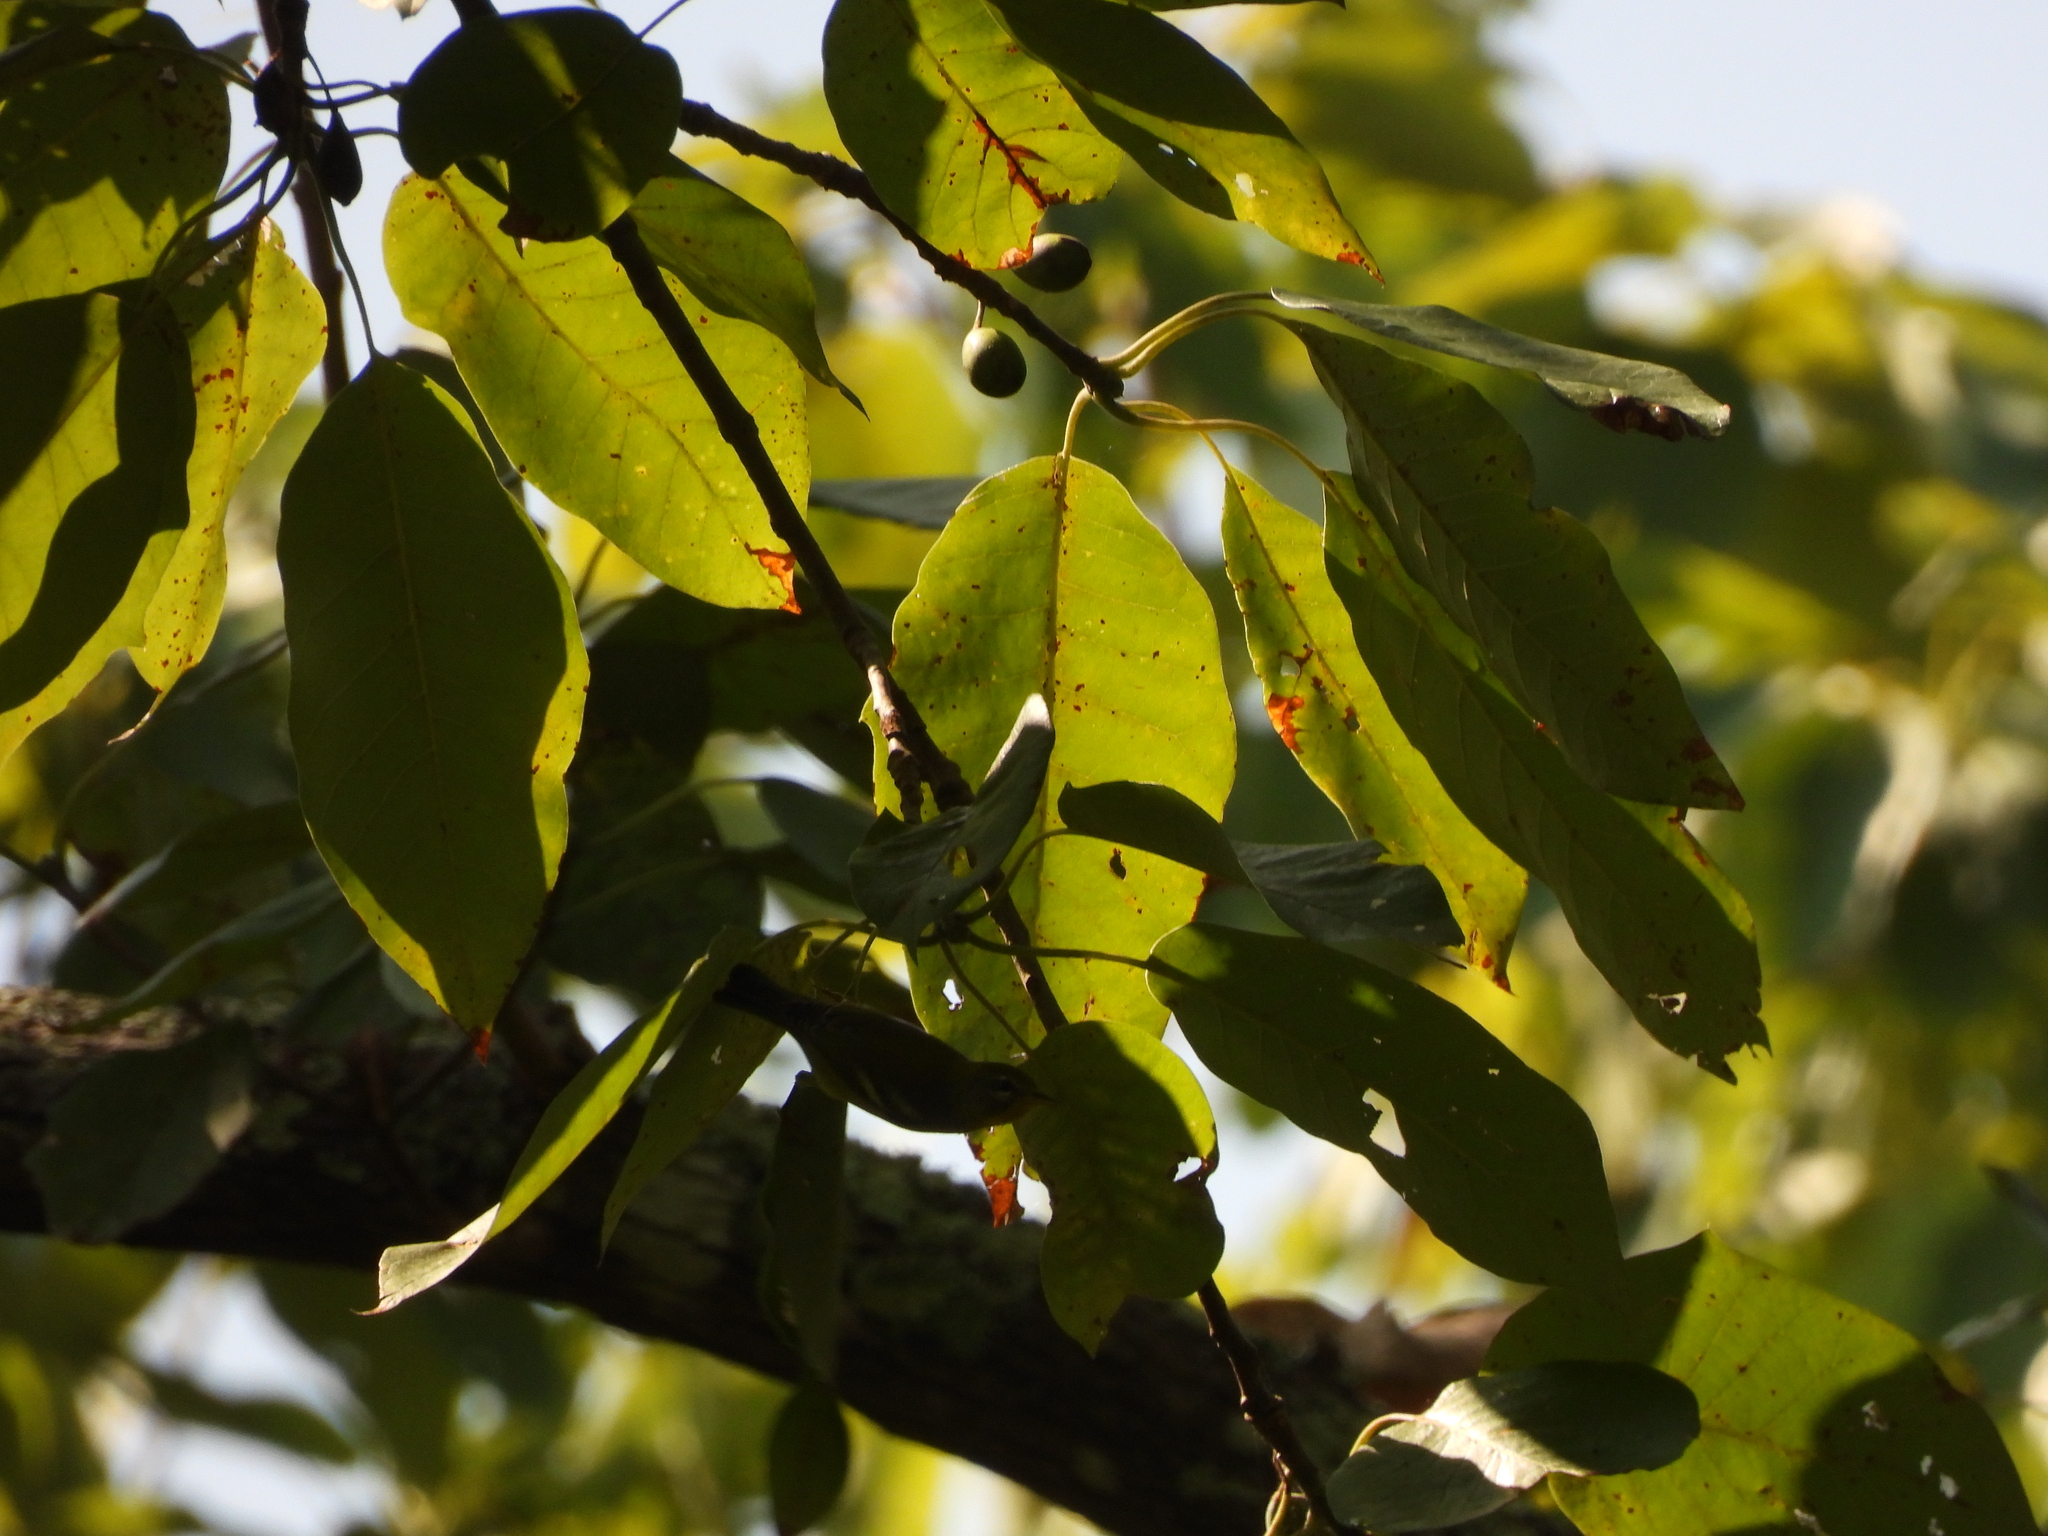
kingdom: Animalia
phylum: Chordata
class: Aves
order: Passeriformes
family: Parulidae
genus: Setophaga
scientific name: Setophaga americana
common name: Northern parula
